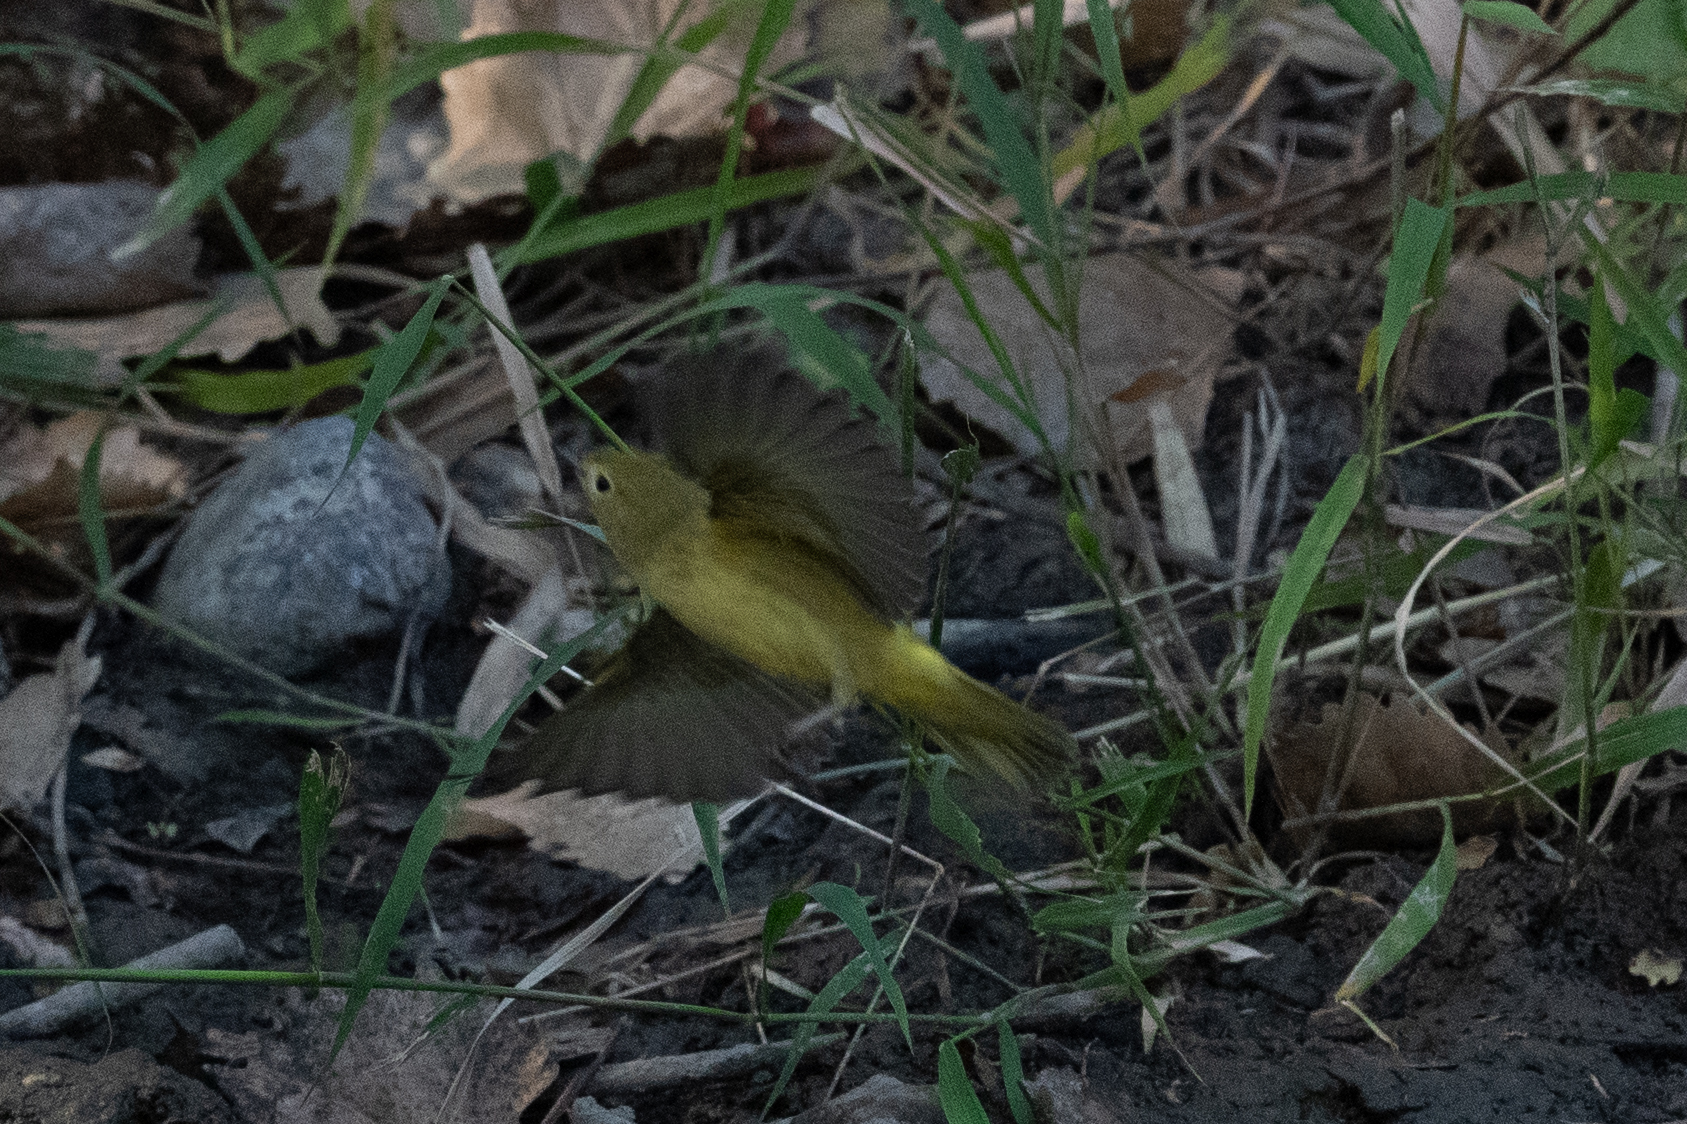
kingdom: Animalia
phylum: Chordata
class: Aves
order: Passeriformes
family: Parulidae
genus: Setophaga
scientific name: Setophaga petechia
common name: Yellow warbler
